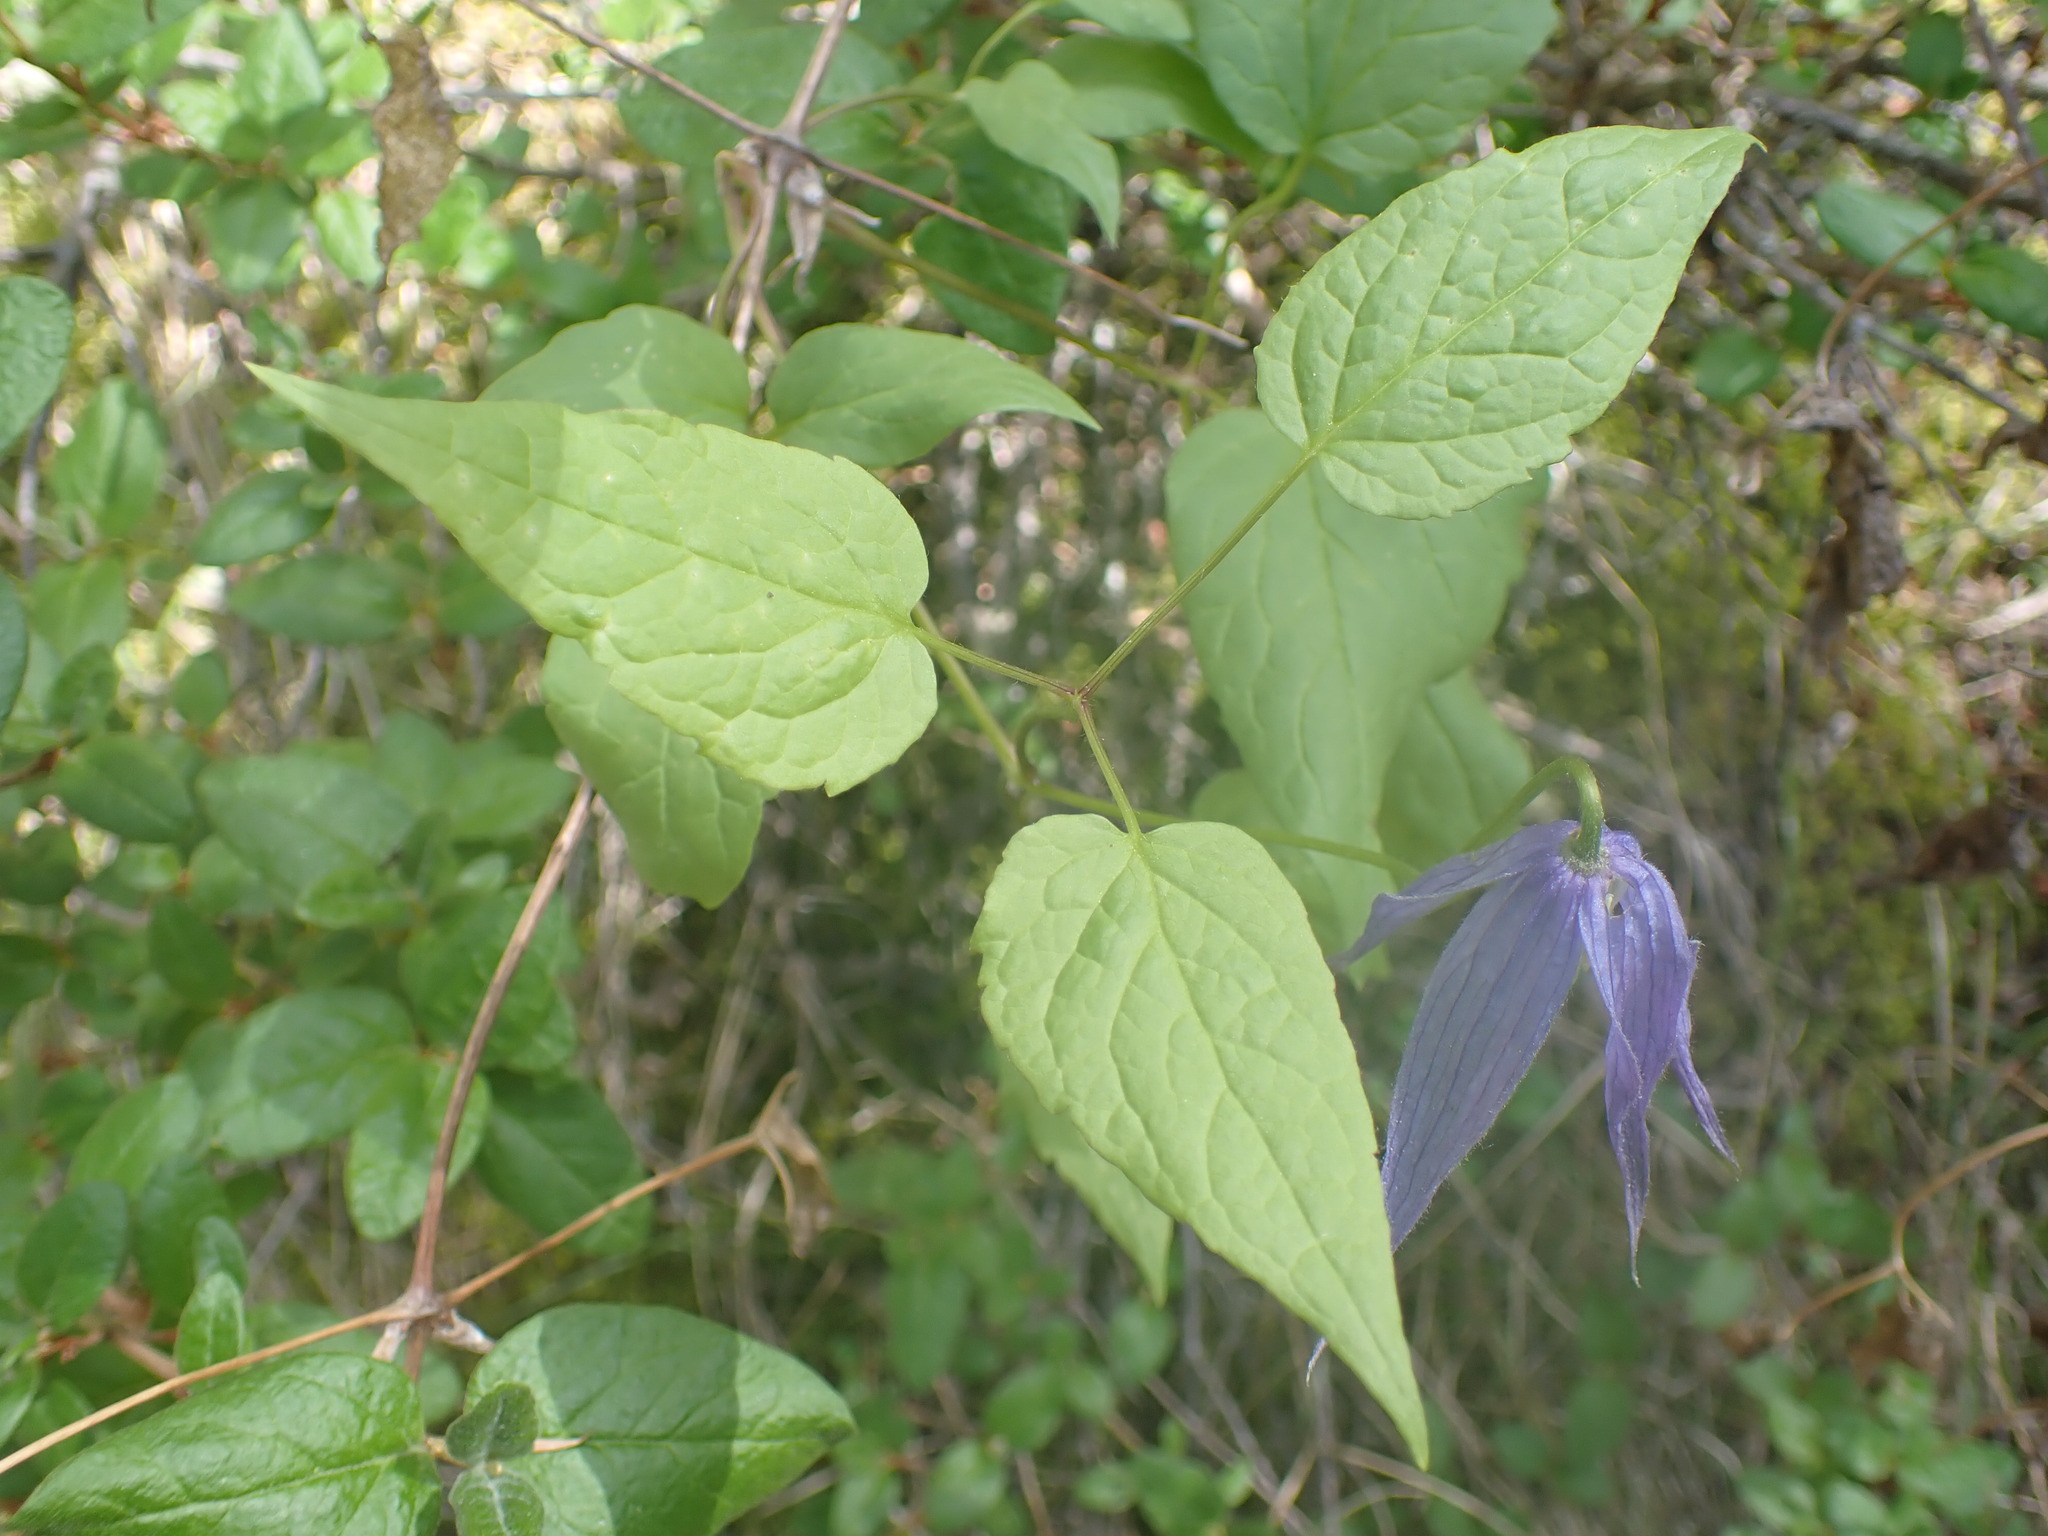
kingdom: Plantae
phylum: Tracheophyta
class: Magnoliopsida
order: Ranunculales
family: Ranunculaceae
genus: Clematis
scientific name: Clematis occidentalis
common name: Purple clematis
